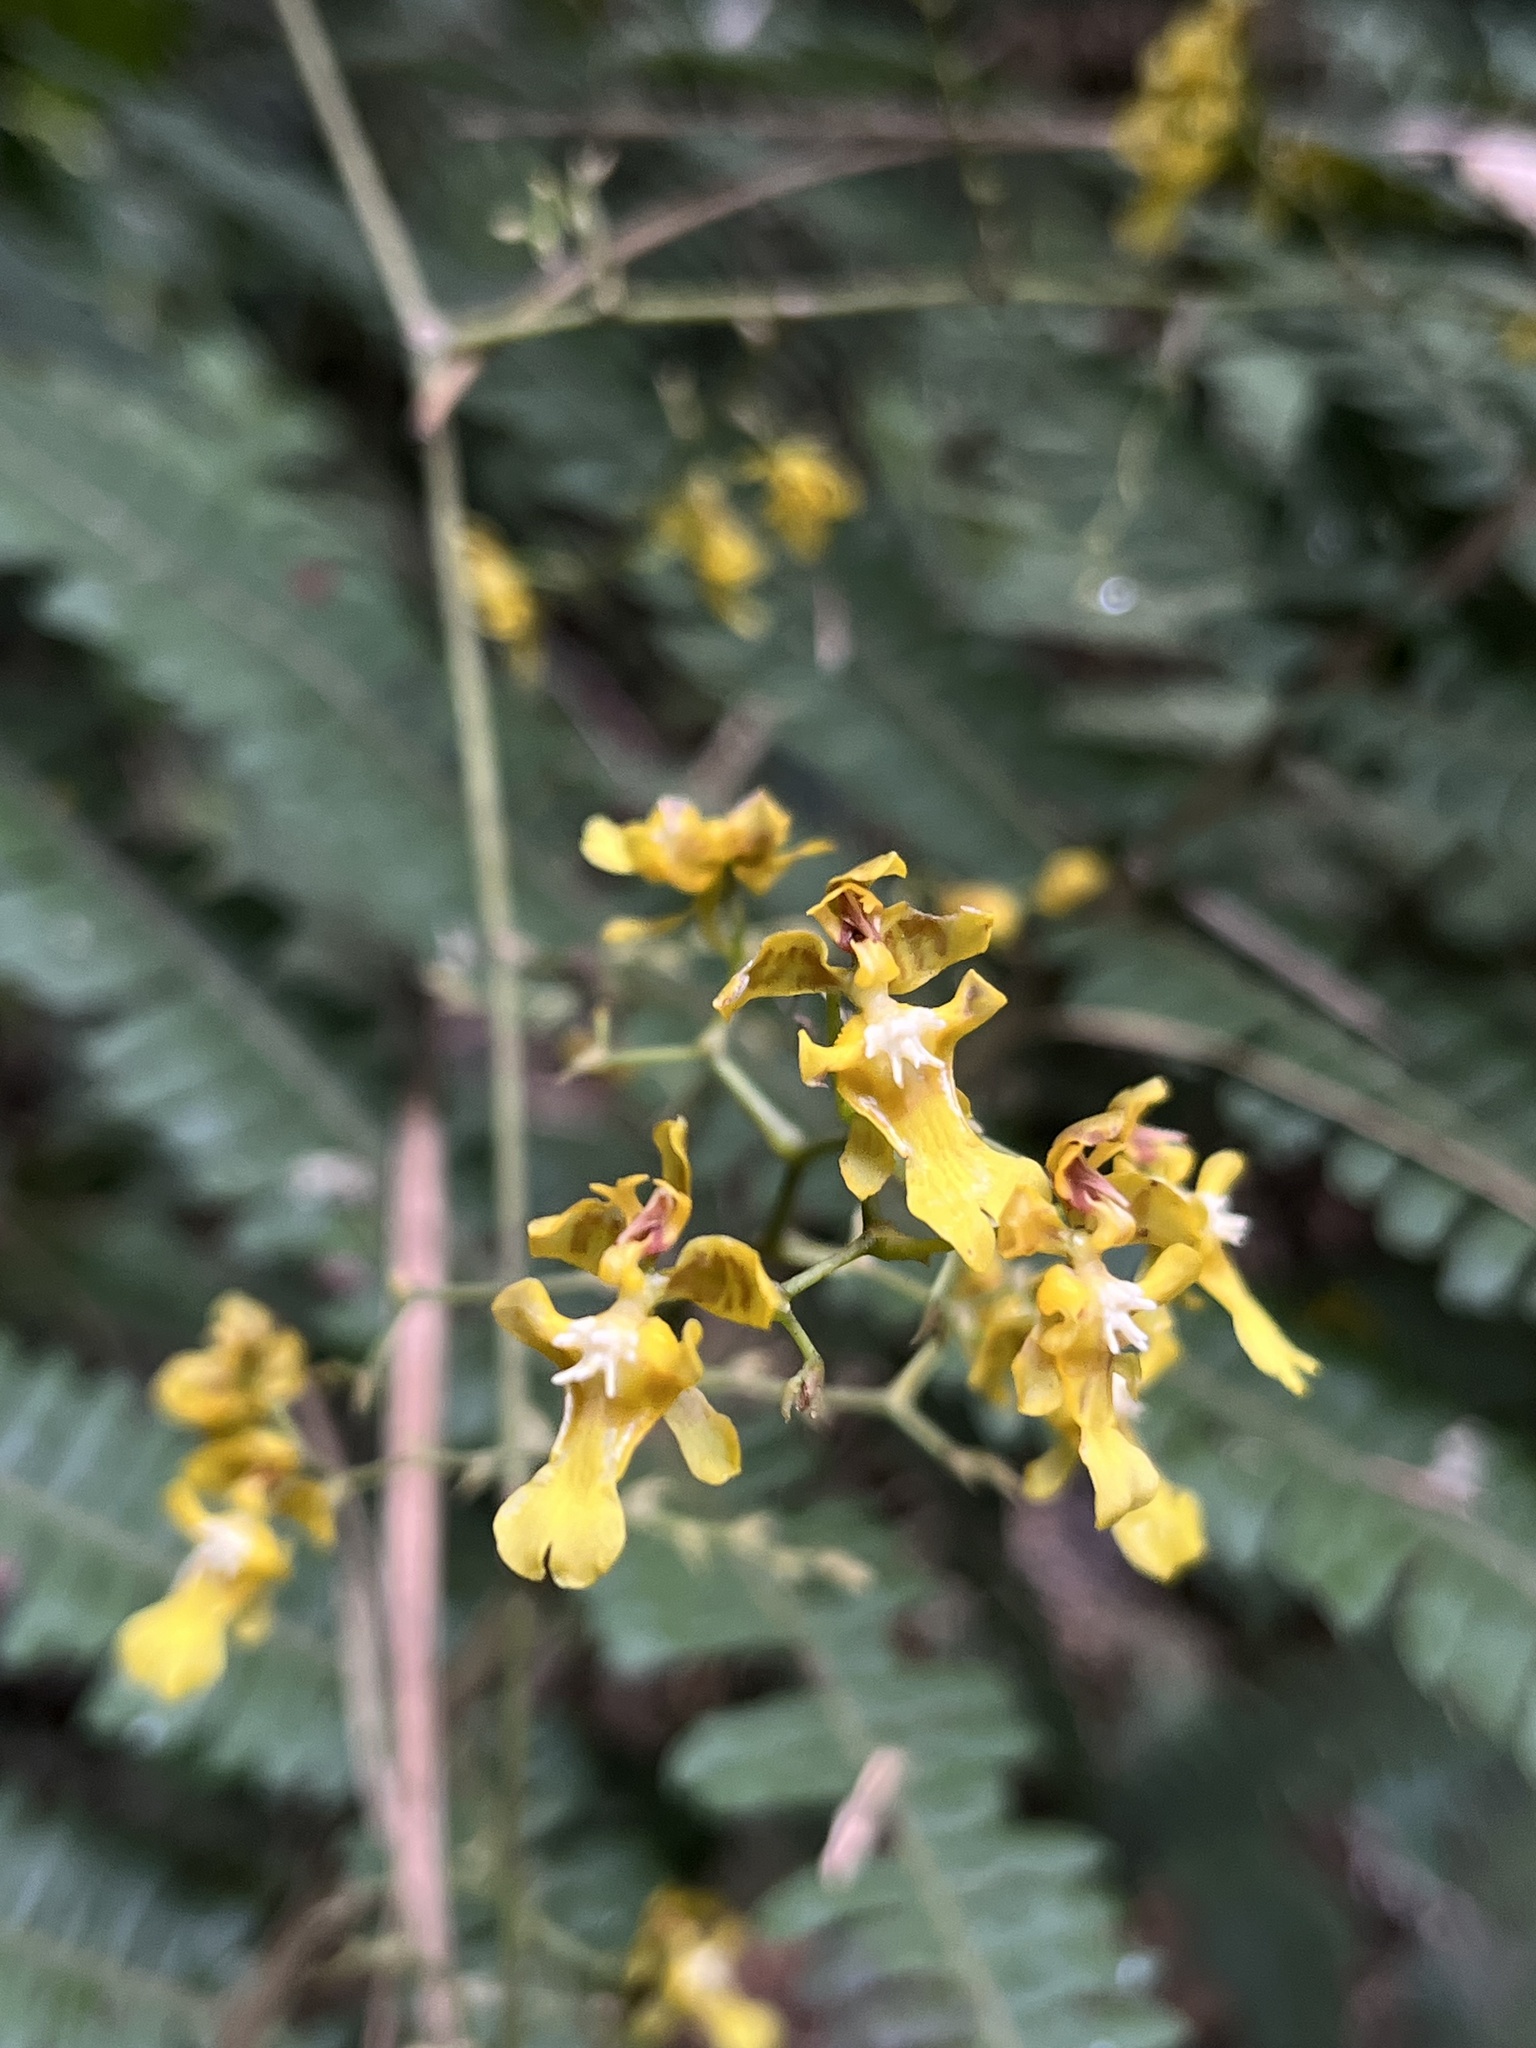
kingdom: Plantae
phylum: Tracheophyta
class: Liliopsida
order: Asparagales
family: Orchidaceae
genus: Oncidium
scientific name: Oncidium ornithorhynchum
